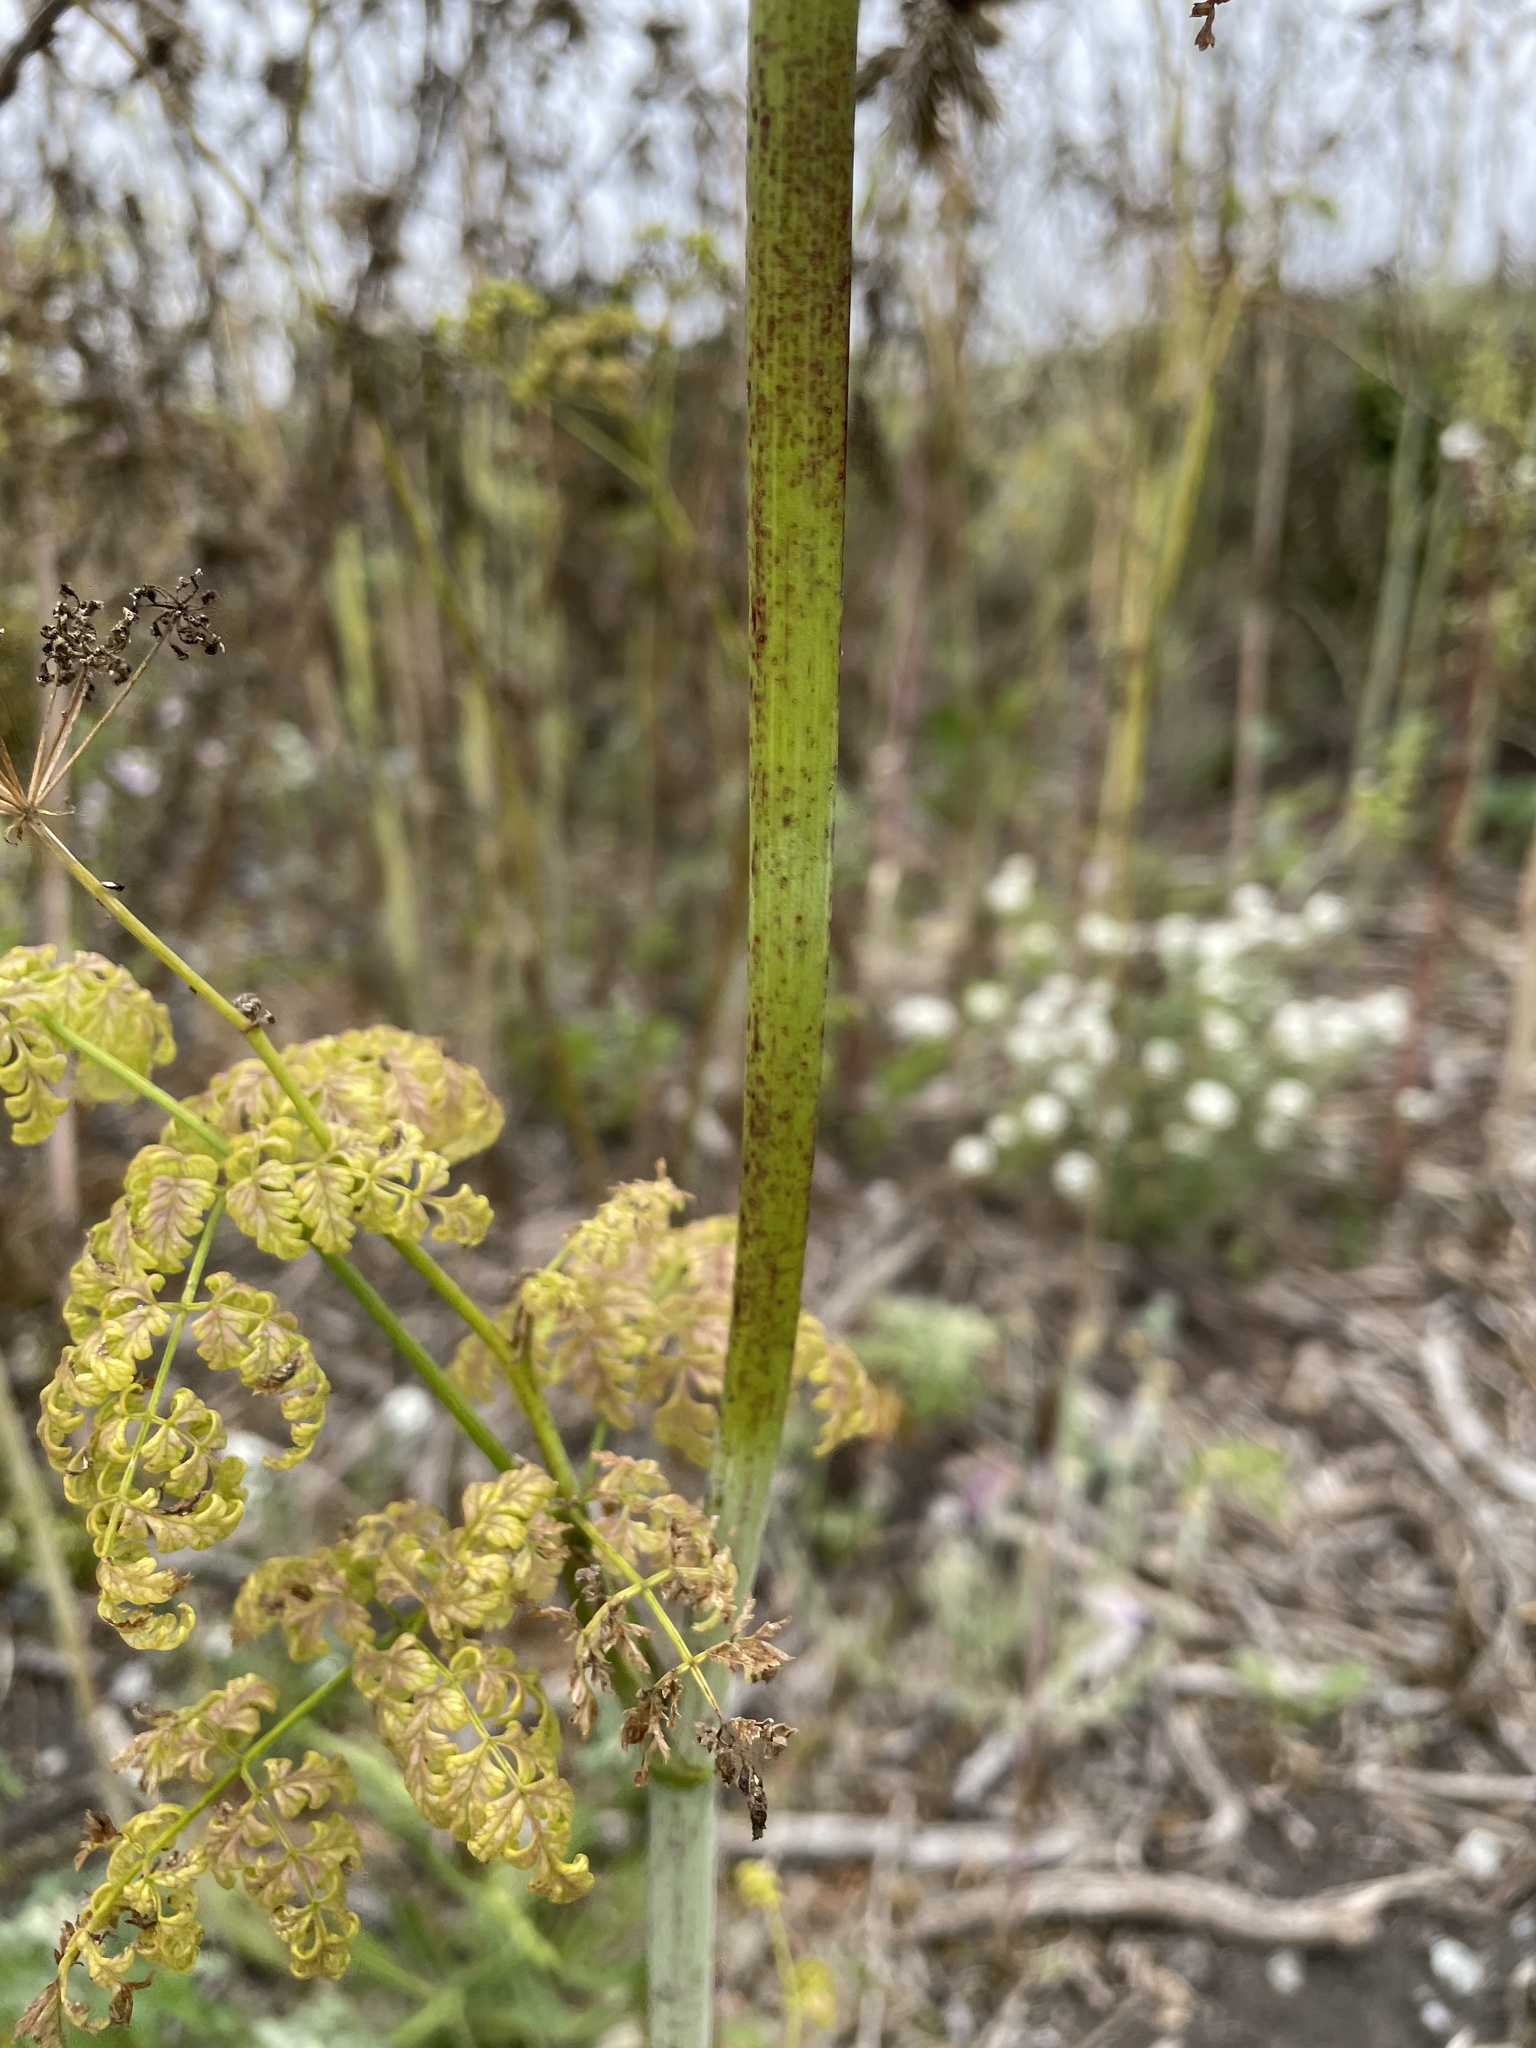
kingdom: Plantae
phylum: Tracheophyta
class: Magnoliopsida
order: Apiales
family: Apiaceae
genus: Conium
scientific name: Conium maculatum
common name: Hemlock
